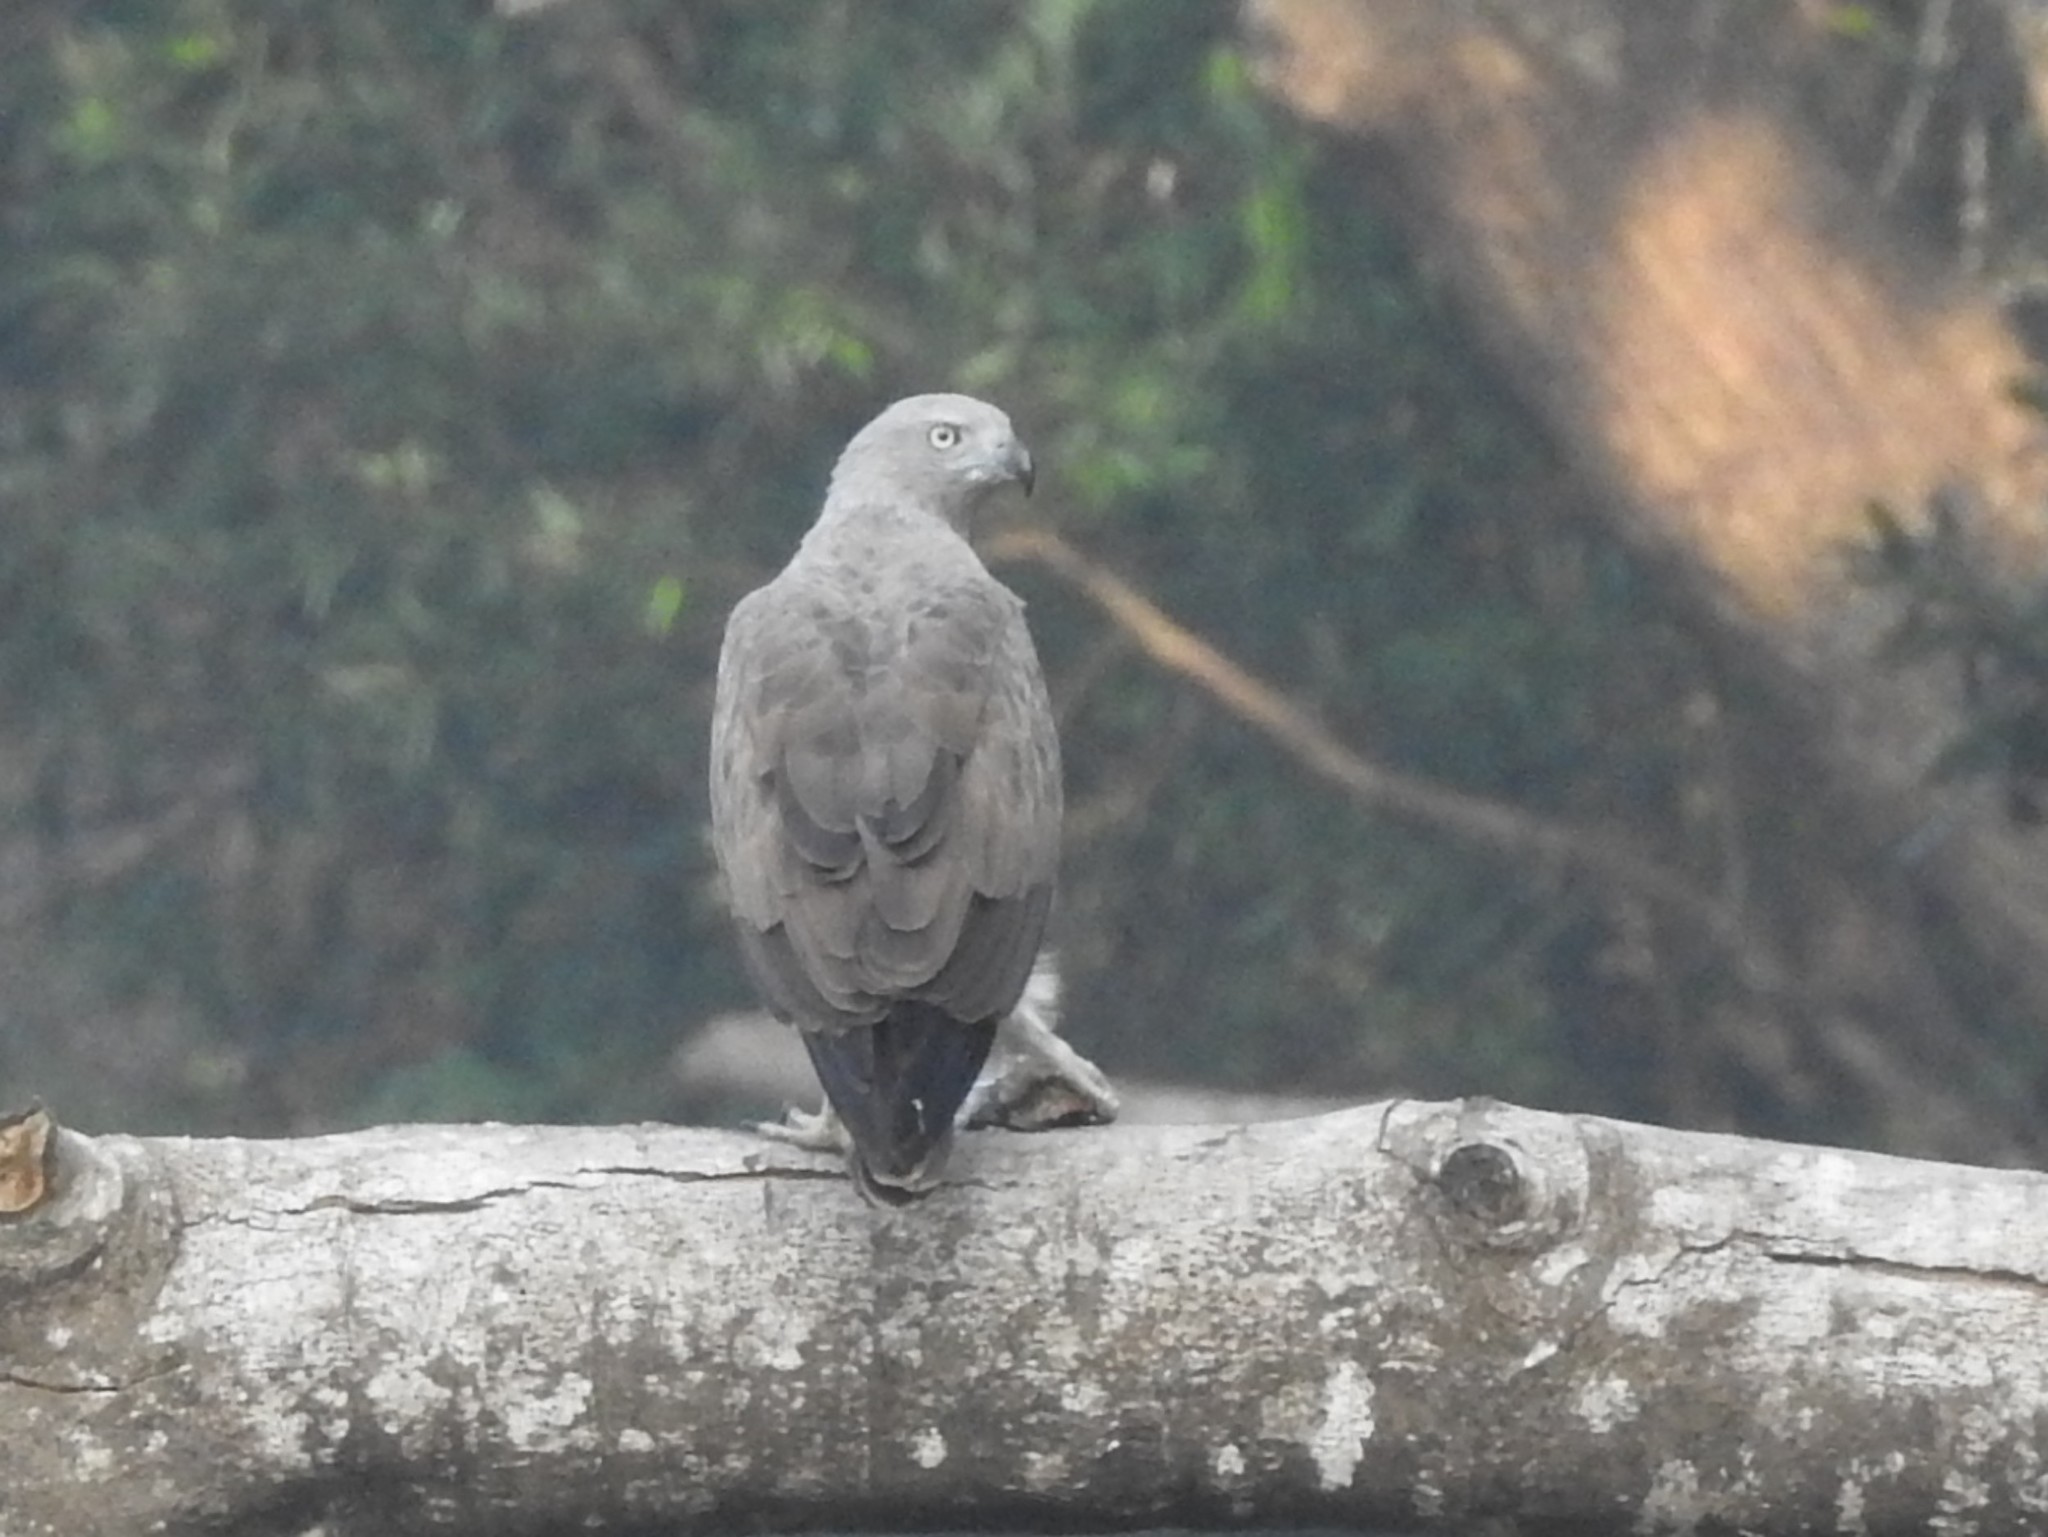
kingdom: Animalia
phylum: Chordata
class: Aves
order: Accipitriformes
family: Accipitridae
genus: Icthyophaga
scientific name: Icthyophaga humilis
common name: Lesser fish-eagle
